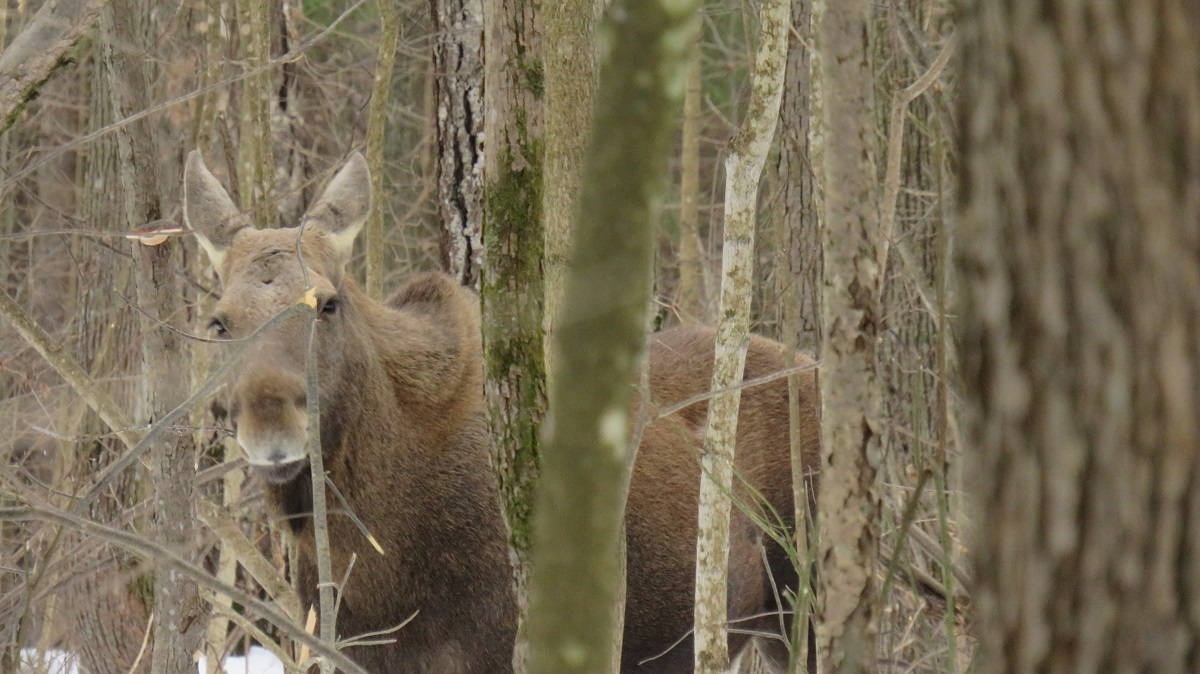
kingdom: Animalia
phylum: Chordata
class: Mammalia
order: Artiodactyla
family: Cervidae
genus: Alces
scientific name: Alces alces
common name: Moose
